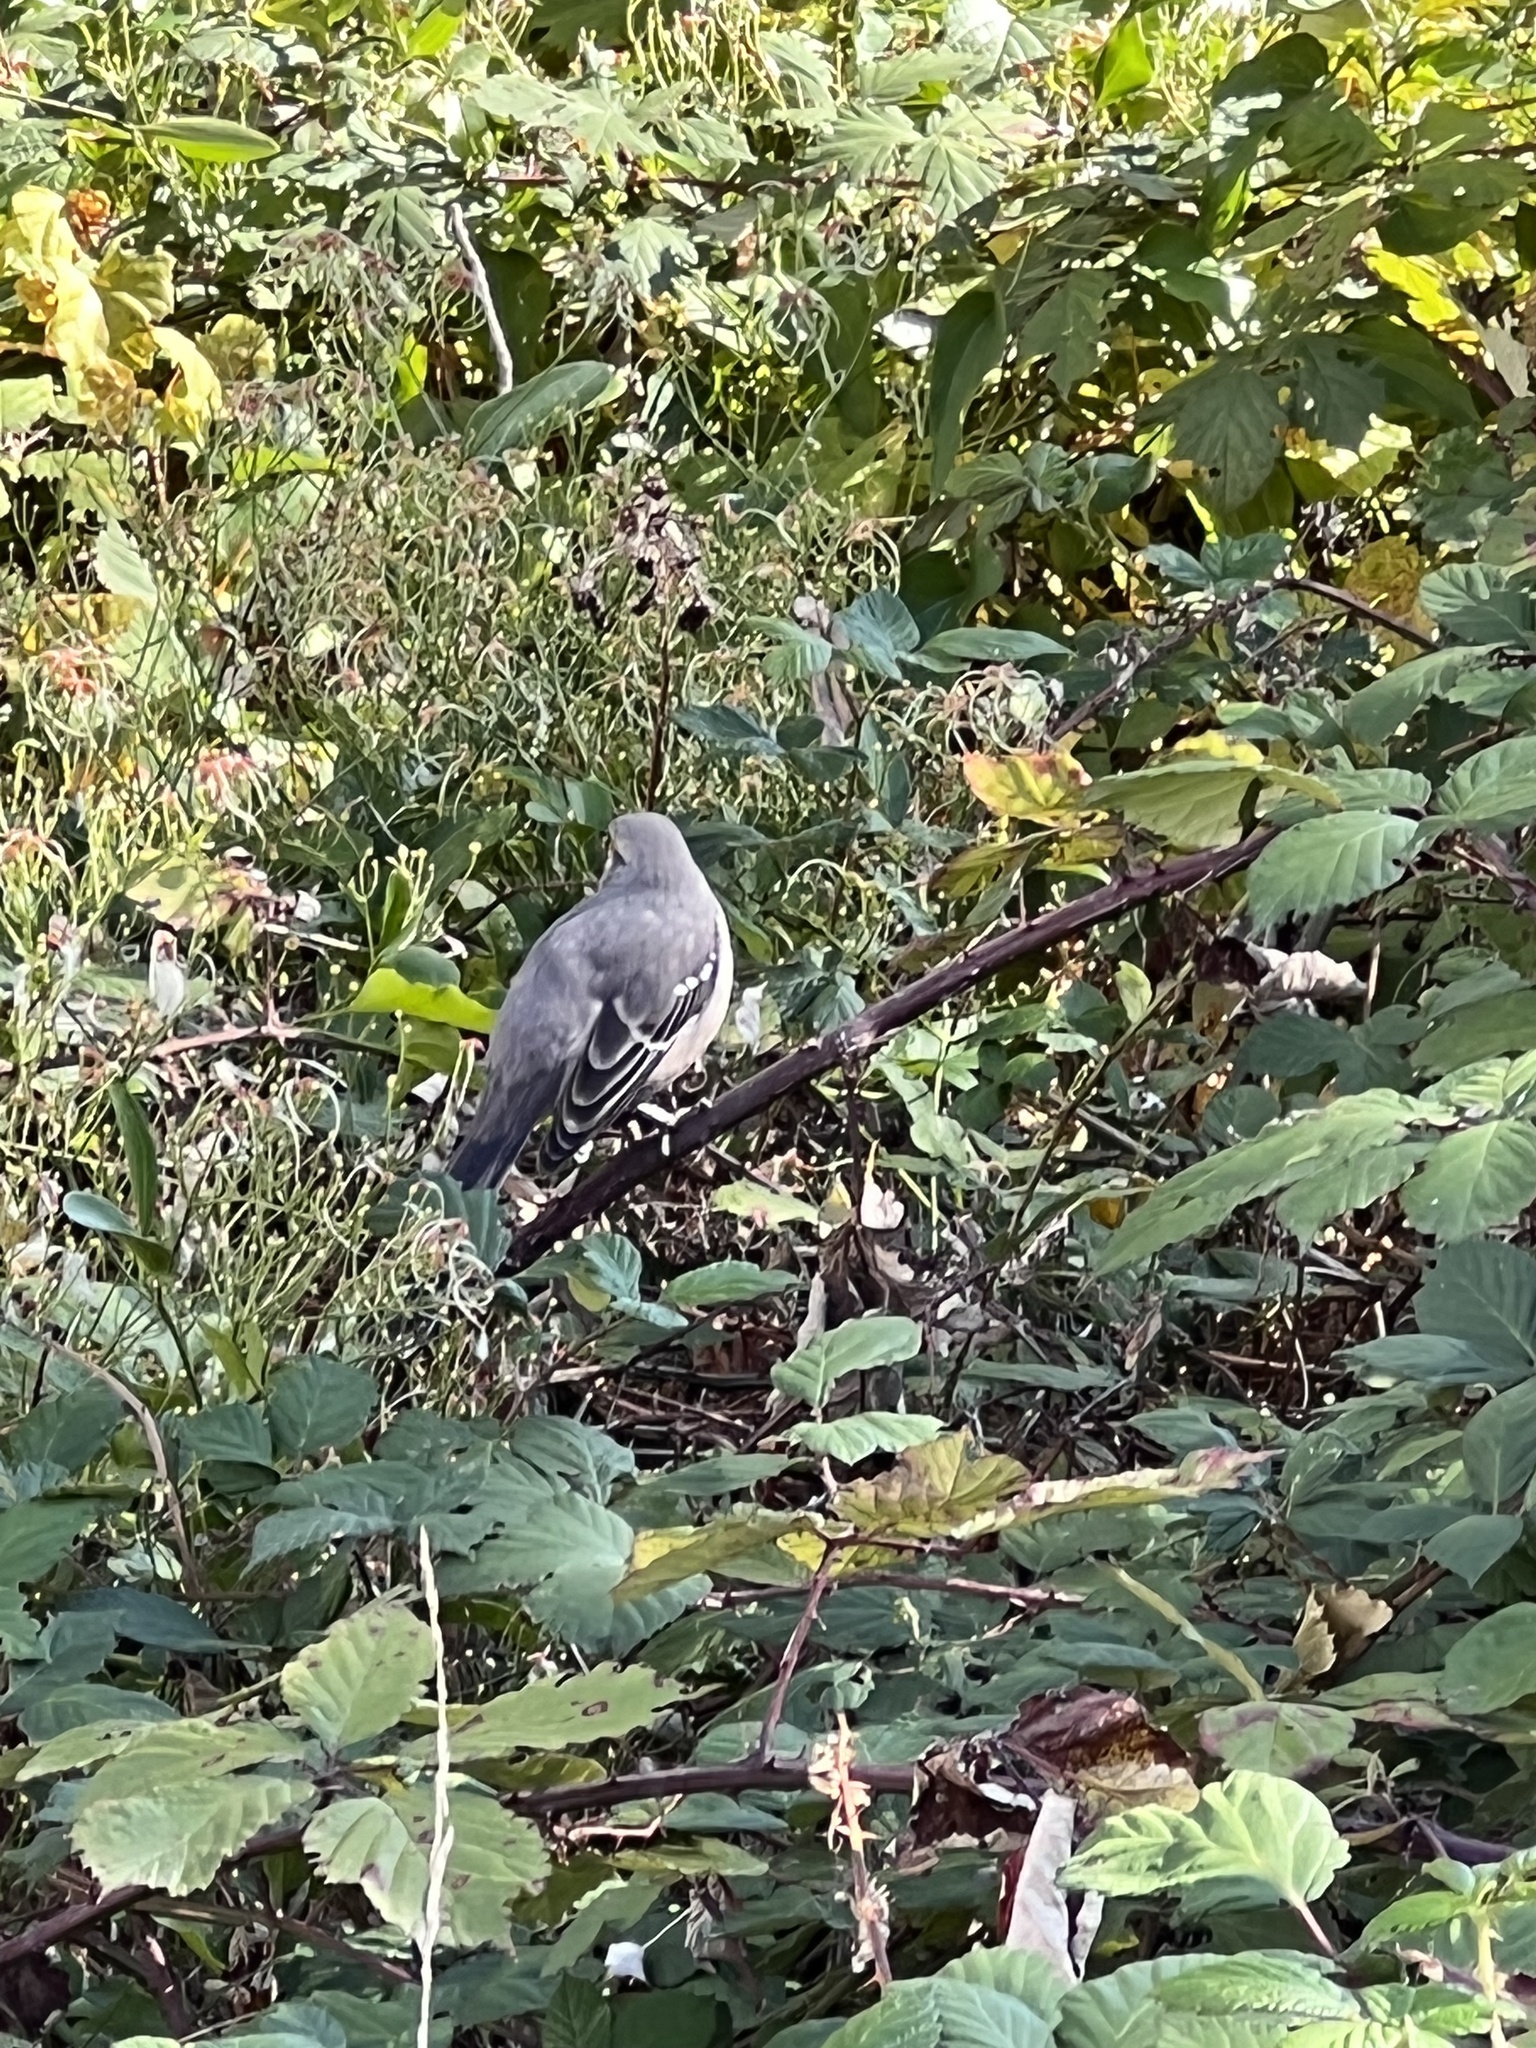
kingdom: Animalia
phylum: Chordata
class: Aves
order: Passeriformes
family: Mimidae
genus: Mimus
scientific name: Mimus polyglottos
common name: Northern mockingbird
